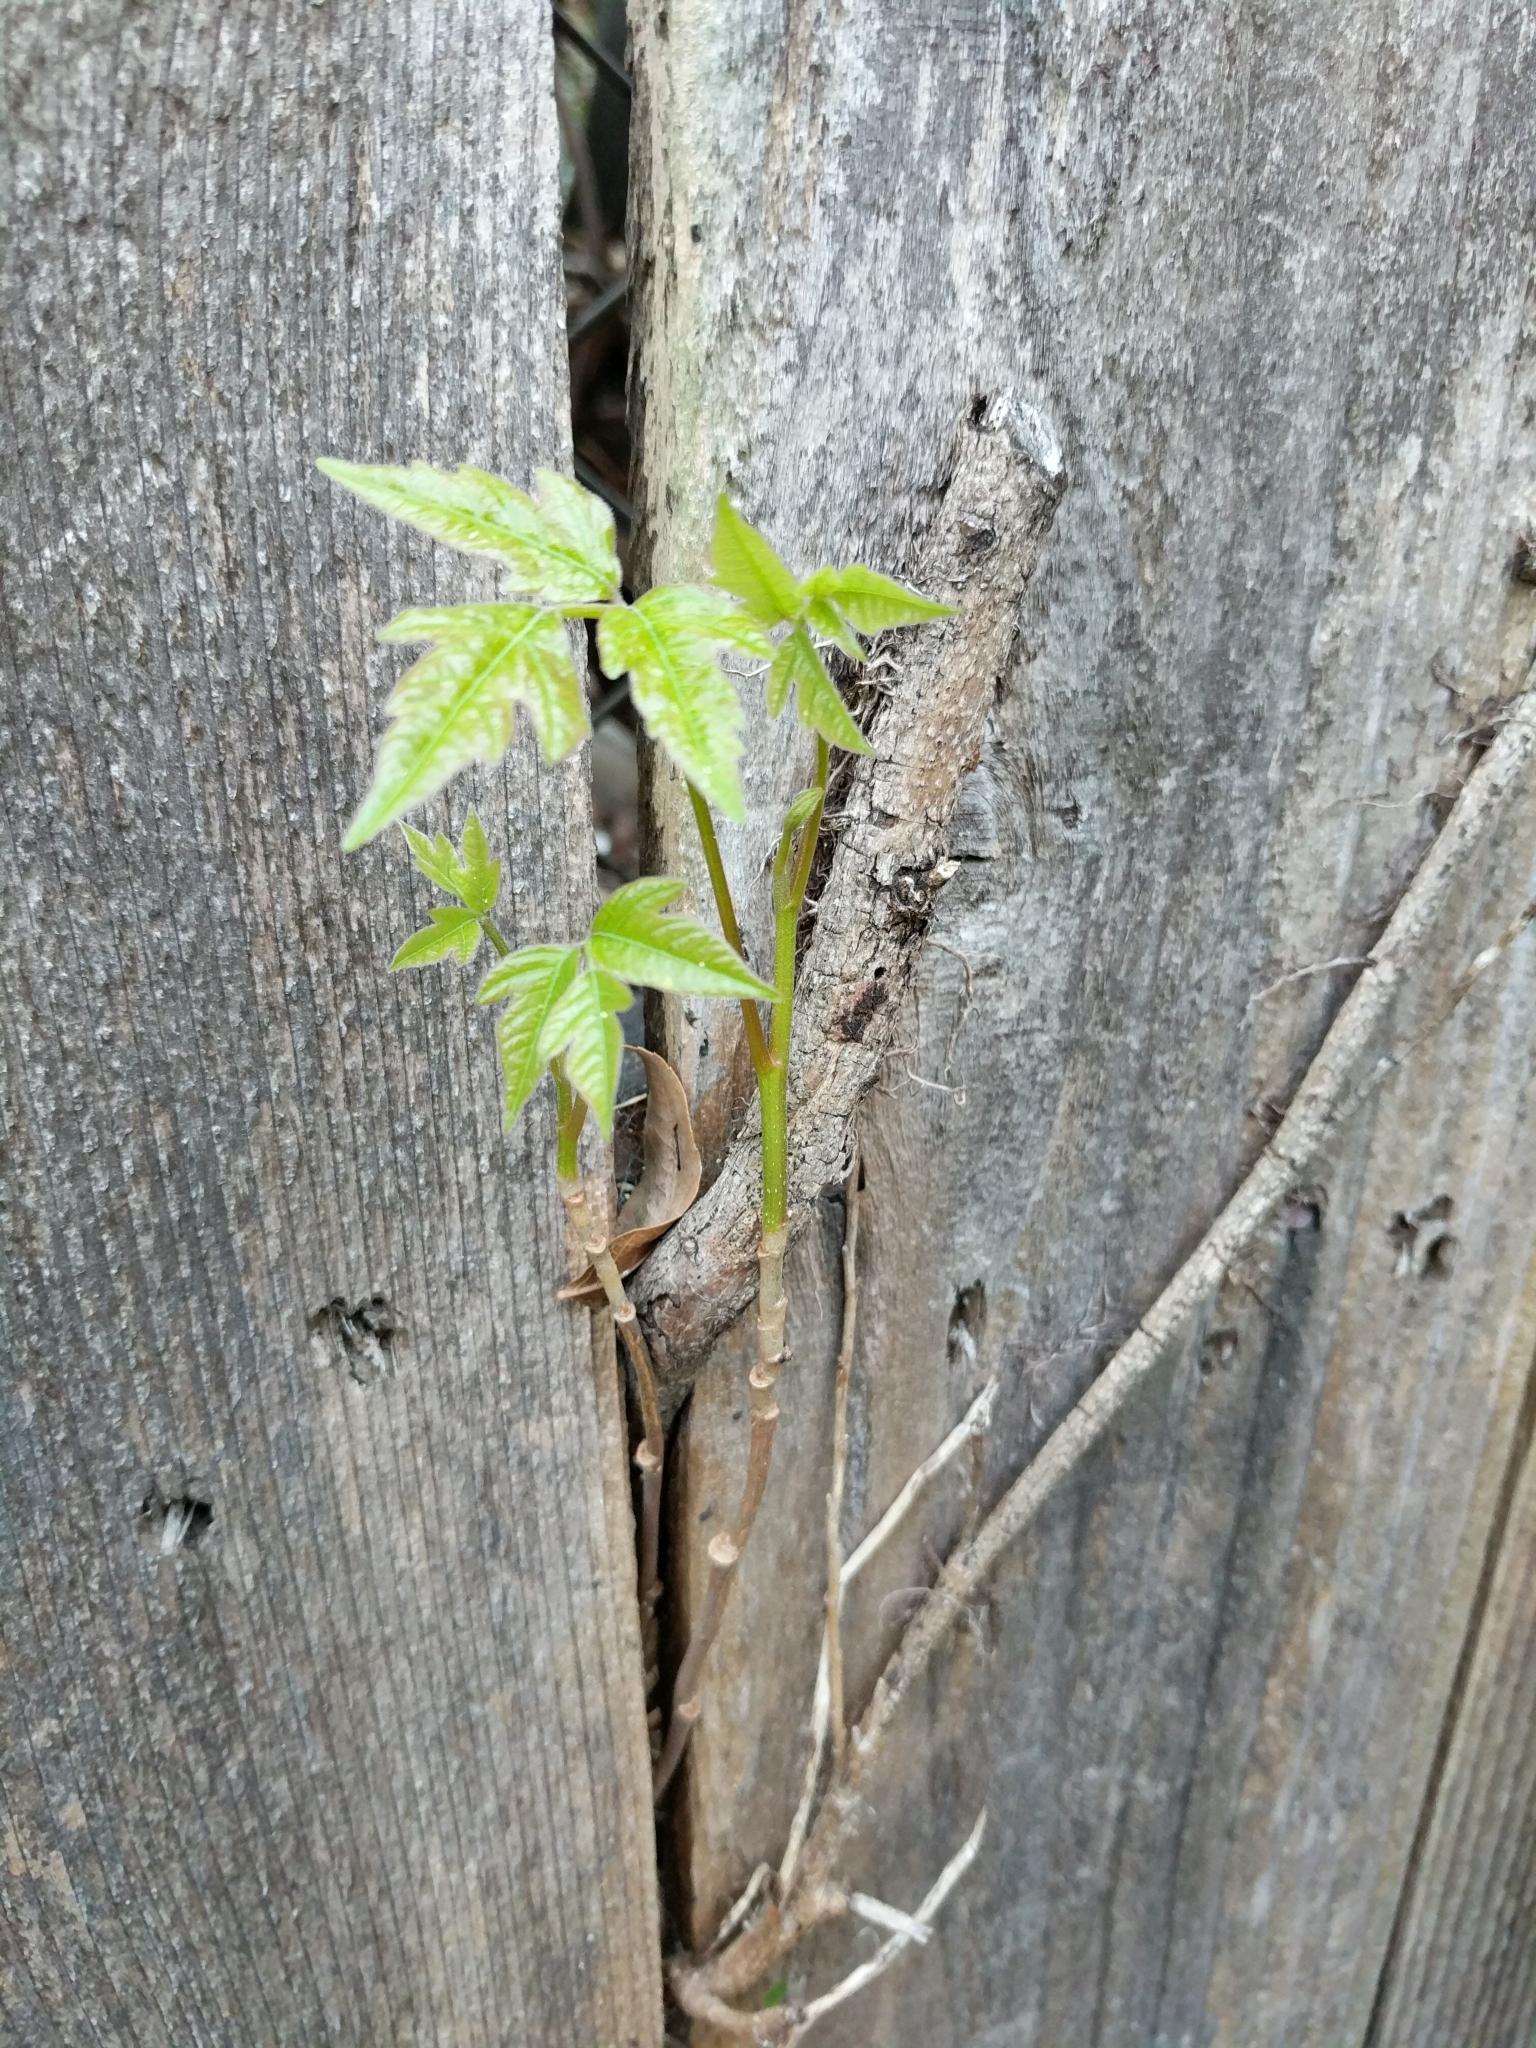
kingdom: Plantae
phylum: Tracheophyta
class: Magnoliopsida
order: Sapindales
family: Anacardiaceae
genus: Toxicodendron
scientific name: Toxicodendron radicans
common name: Poison ivy
